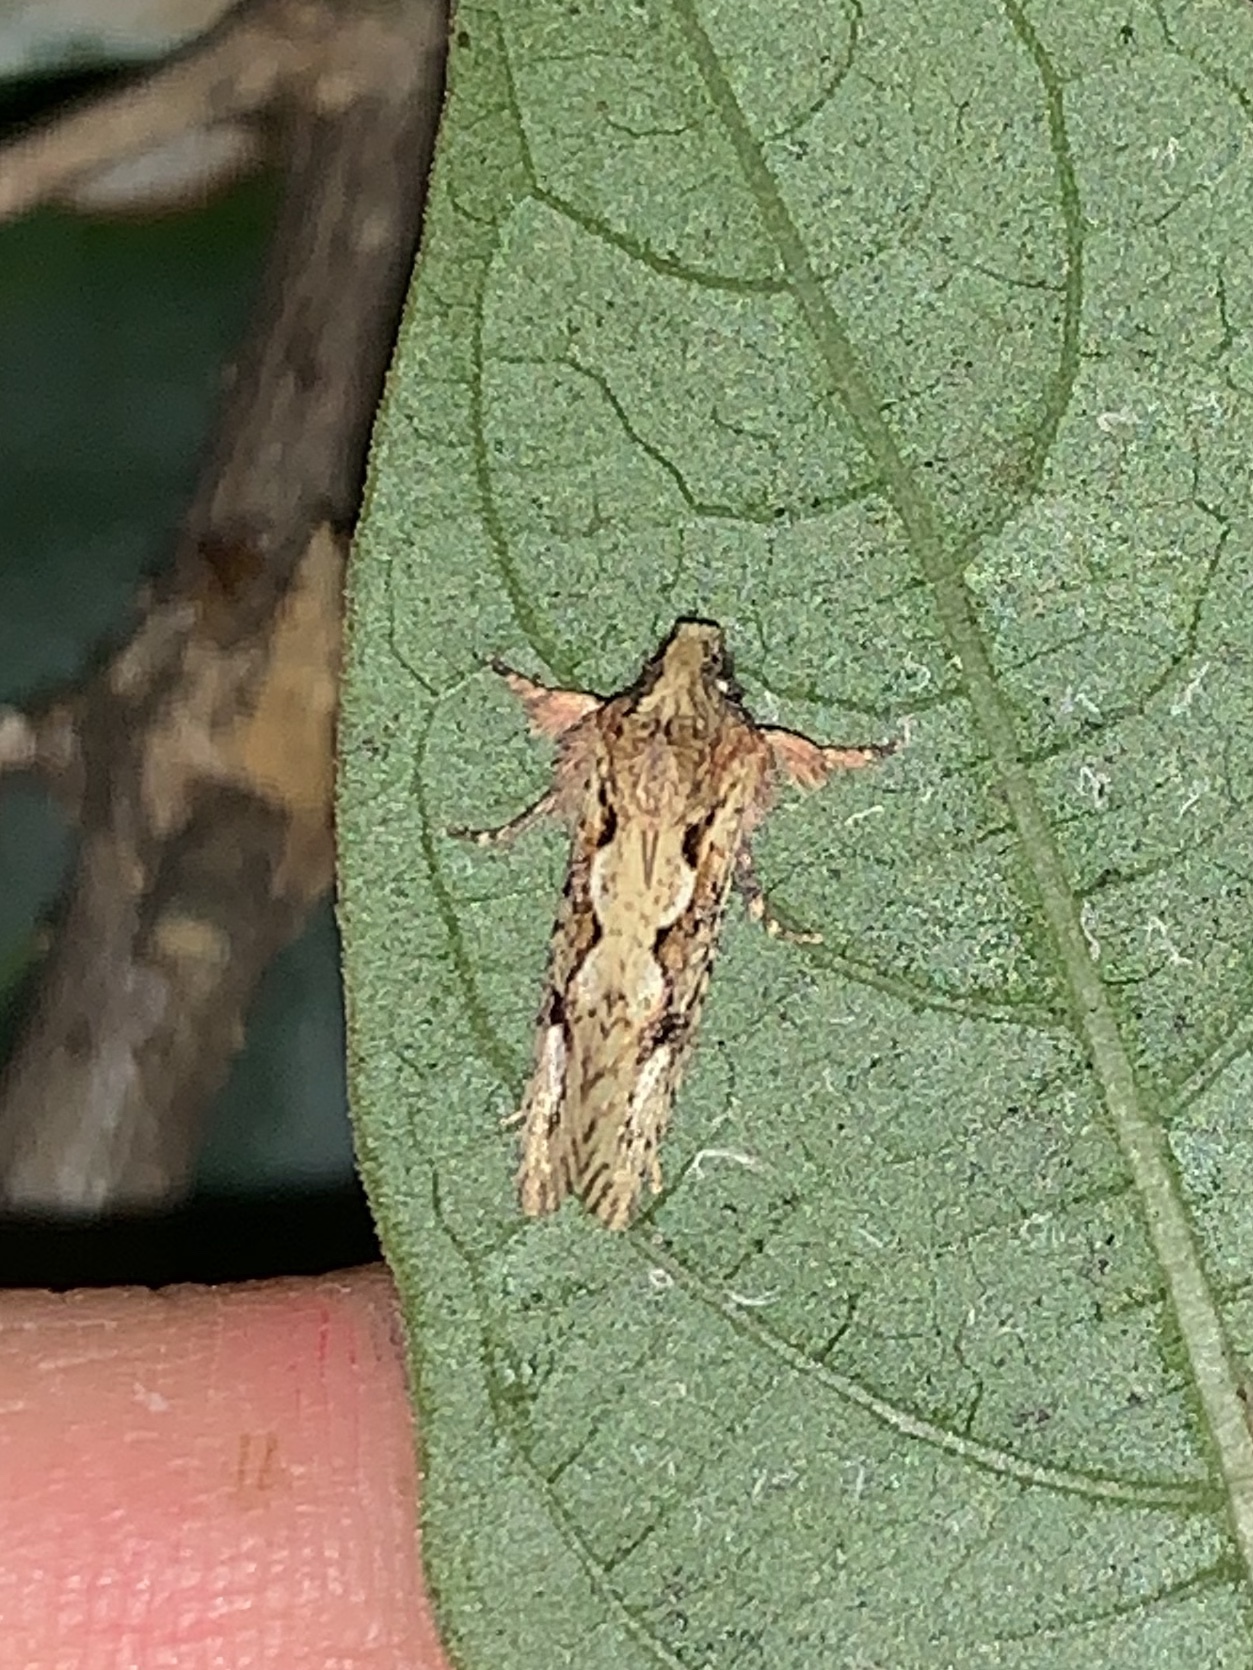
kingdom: Animalia
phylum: Arthropoda
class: Insecta
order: Lepidoptera
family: Tineidae
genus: Acrolophus
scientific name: Acrolophus walsinghami
